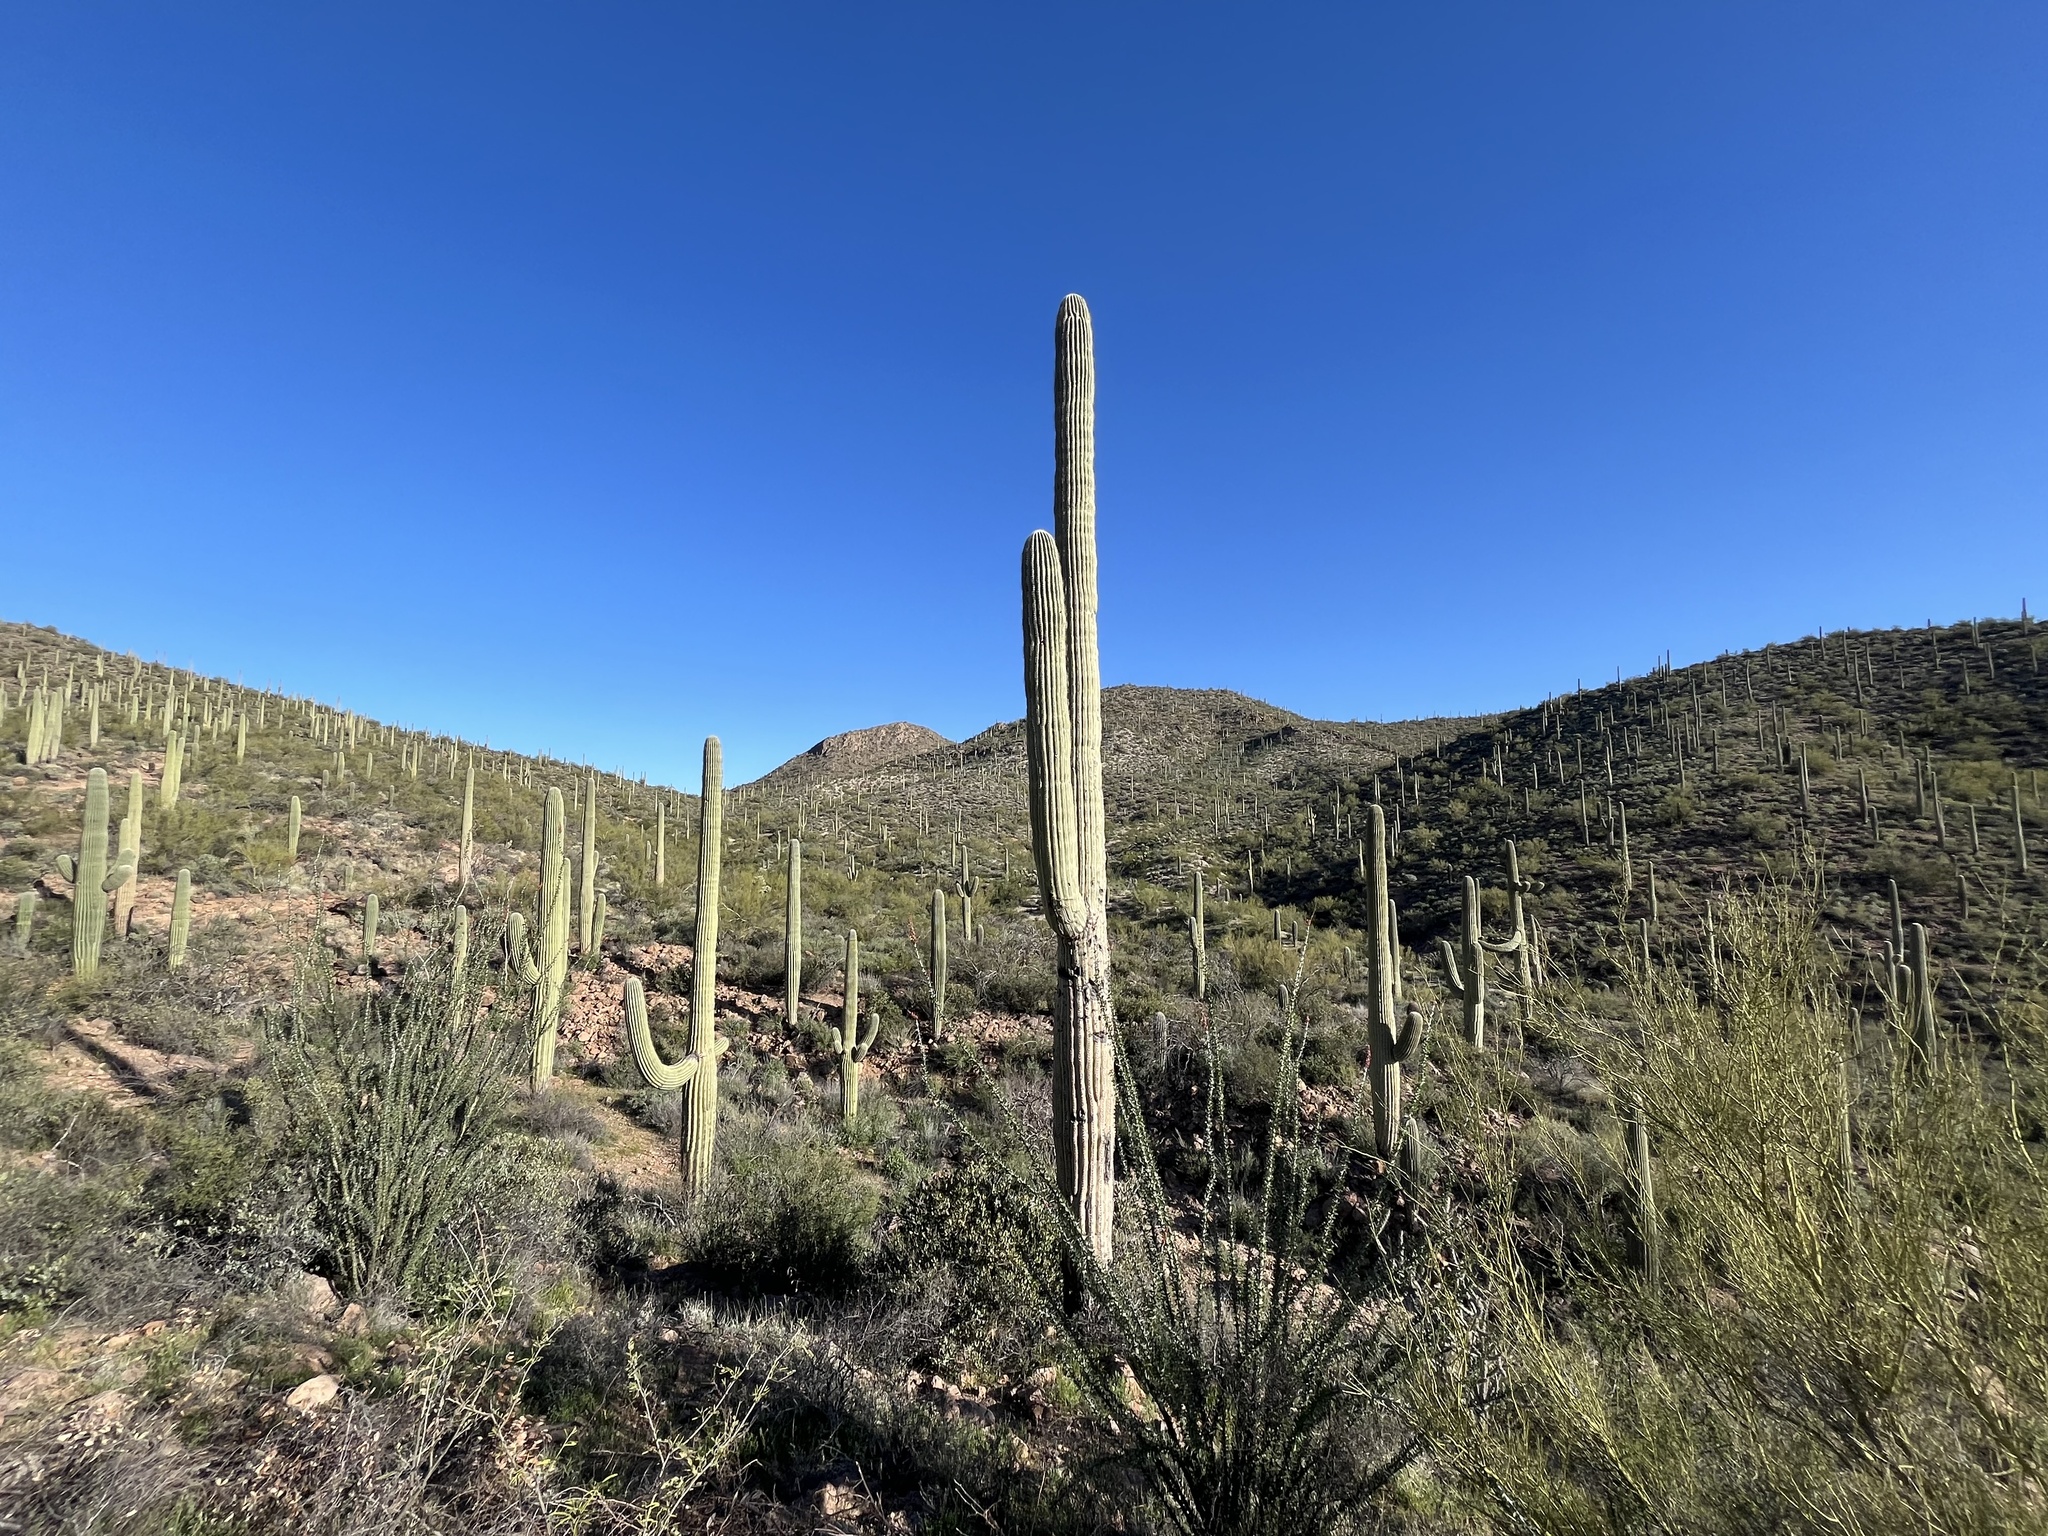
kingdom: Plantae
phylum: Tracheophyta
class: Magnoliopsida
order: Caryophyllales
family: Cactaceae
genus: Carnegiea
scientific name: Carnegiea gigantea
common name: Saguaro
